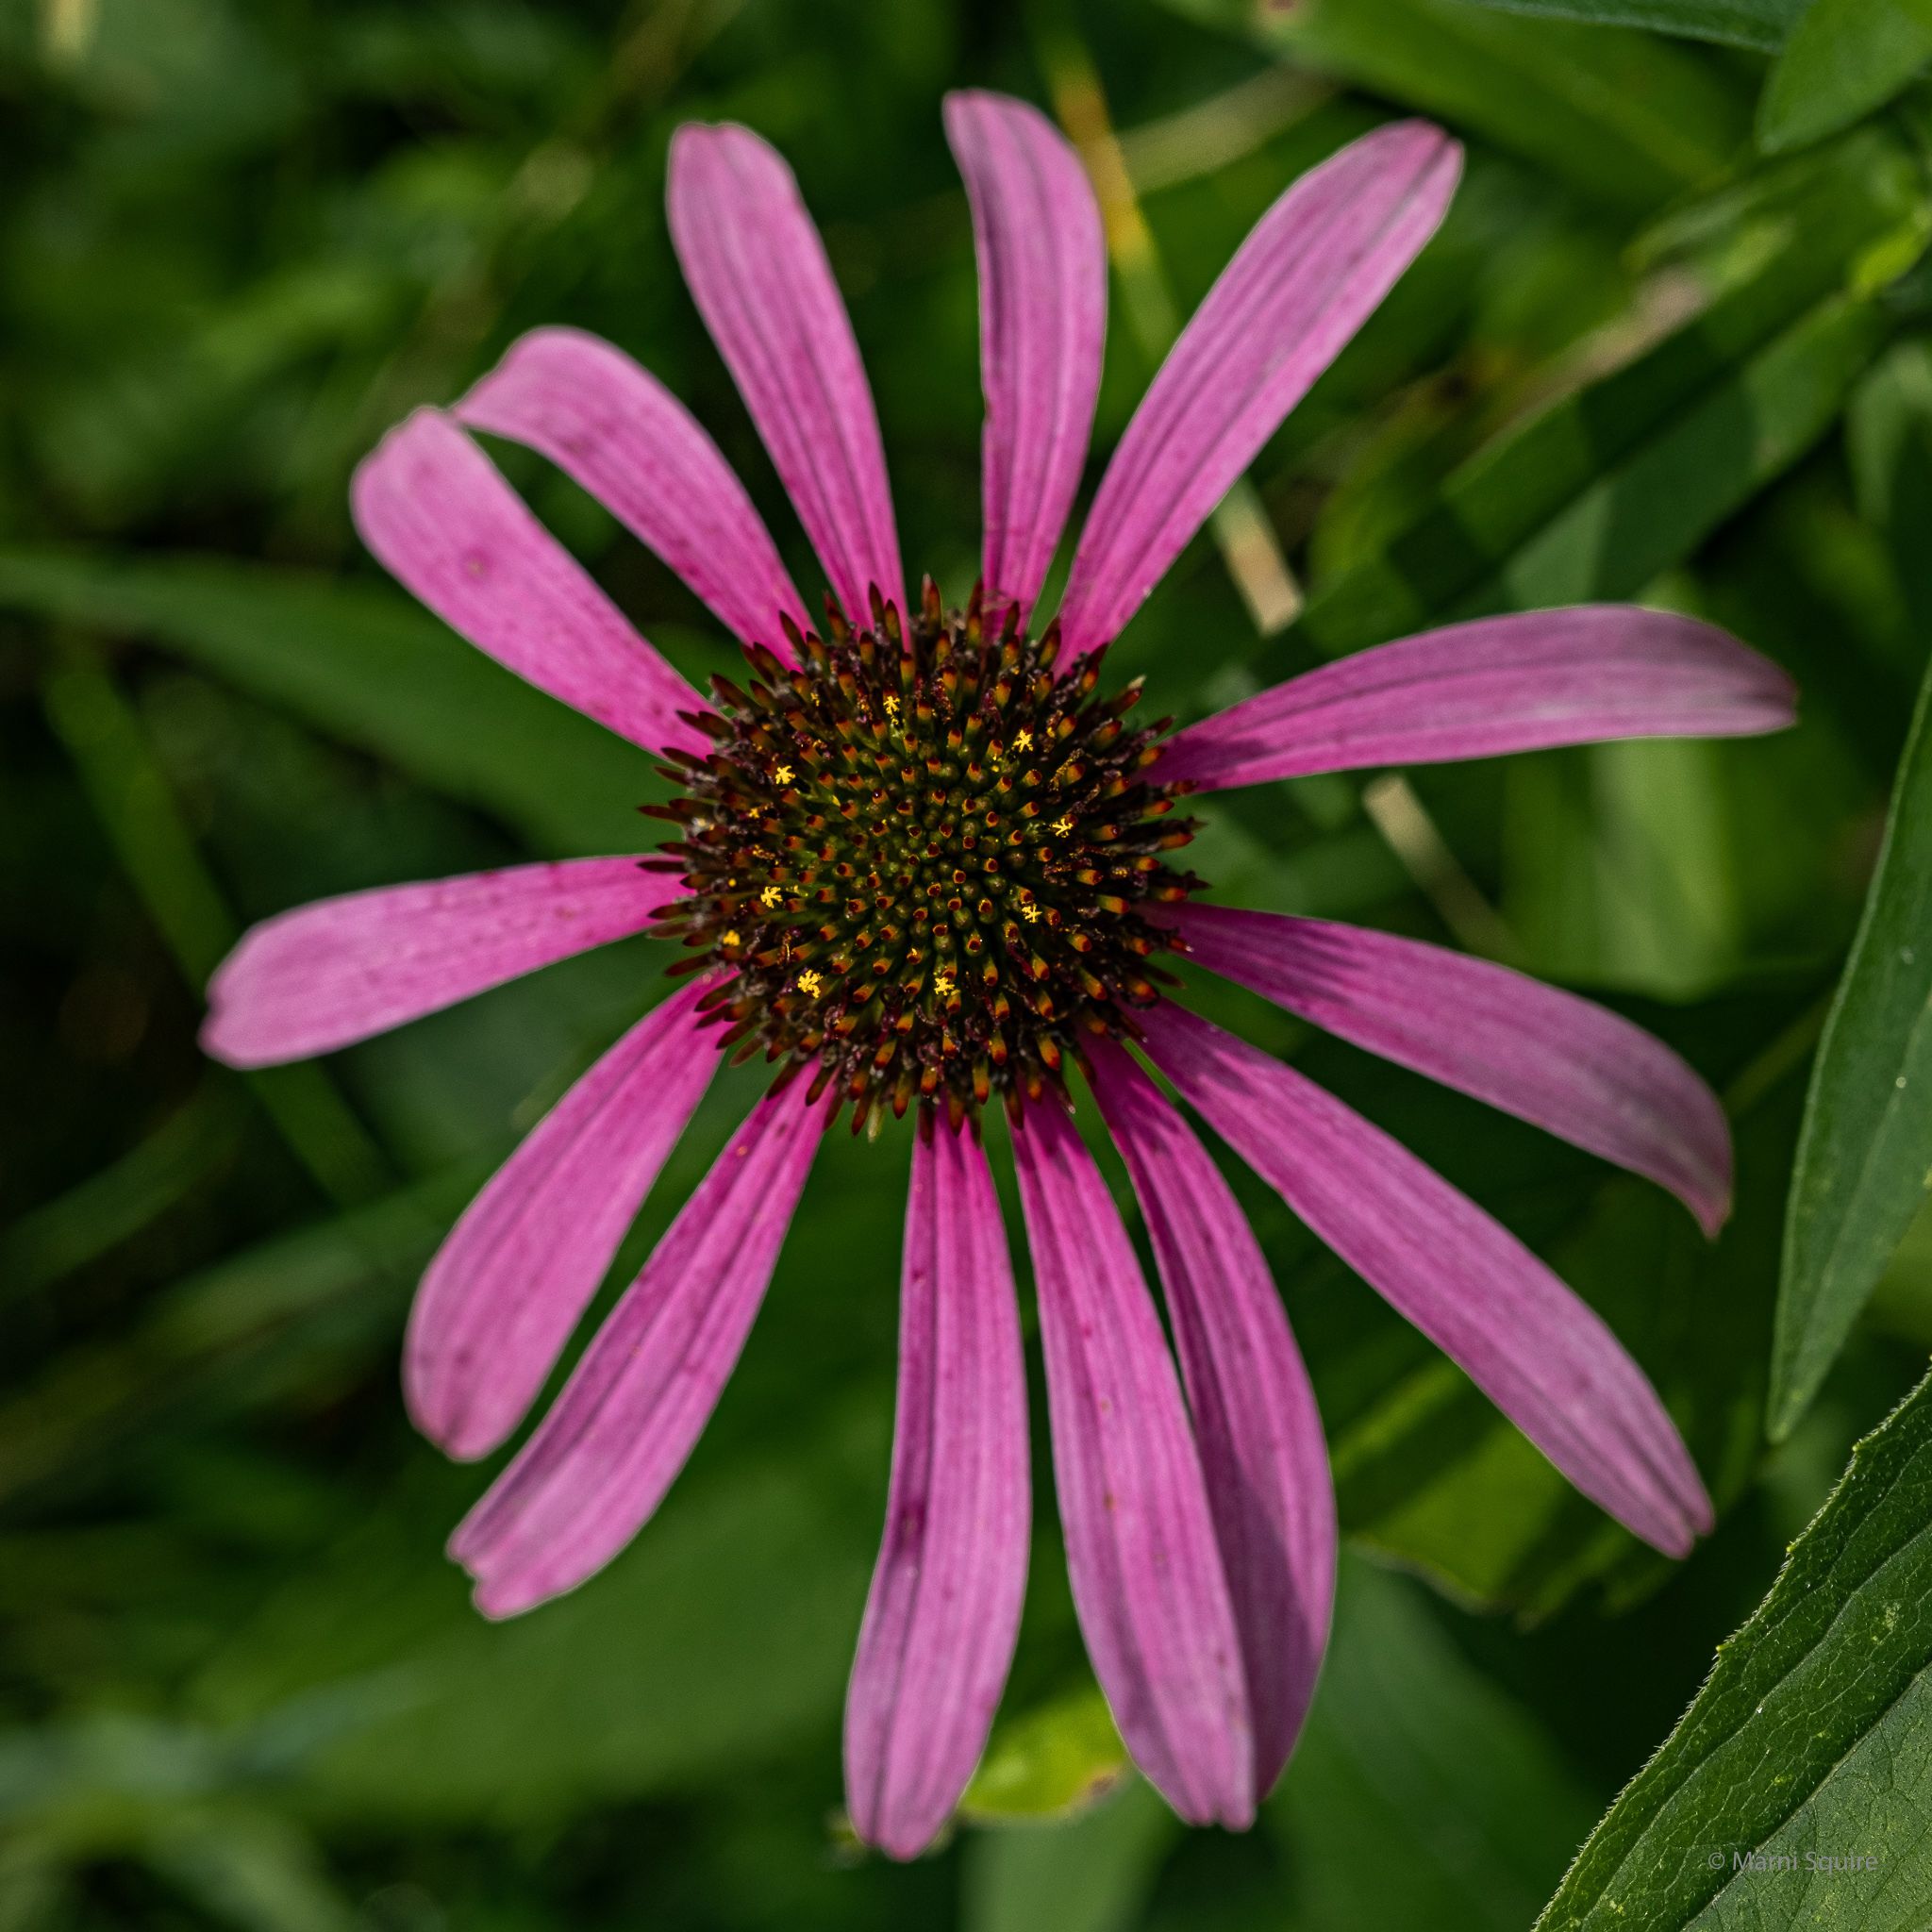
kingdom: Plantae
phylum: Tracheophyta
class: Magnoliopsida
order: Asterales
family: Asteraceae
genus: Echinacea
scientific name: Echinacea purpurea
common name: Broad-leaved purple coneflower
